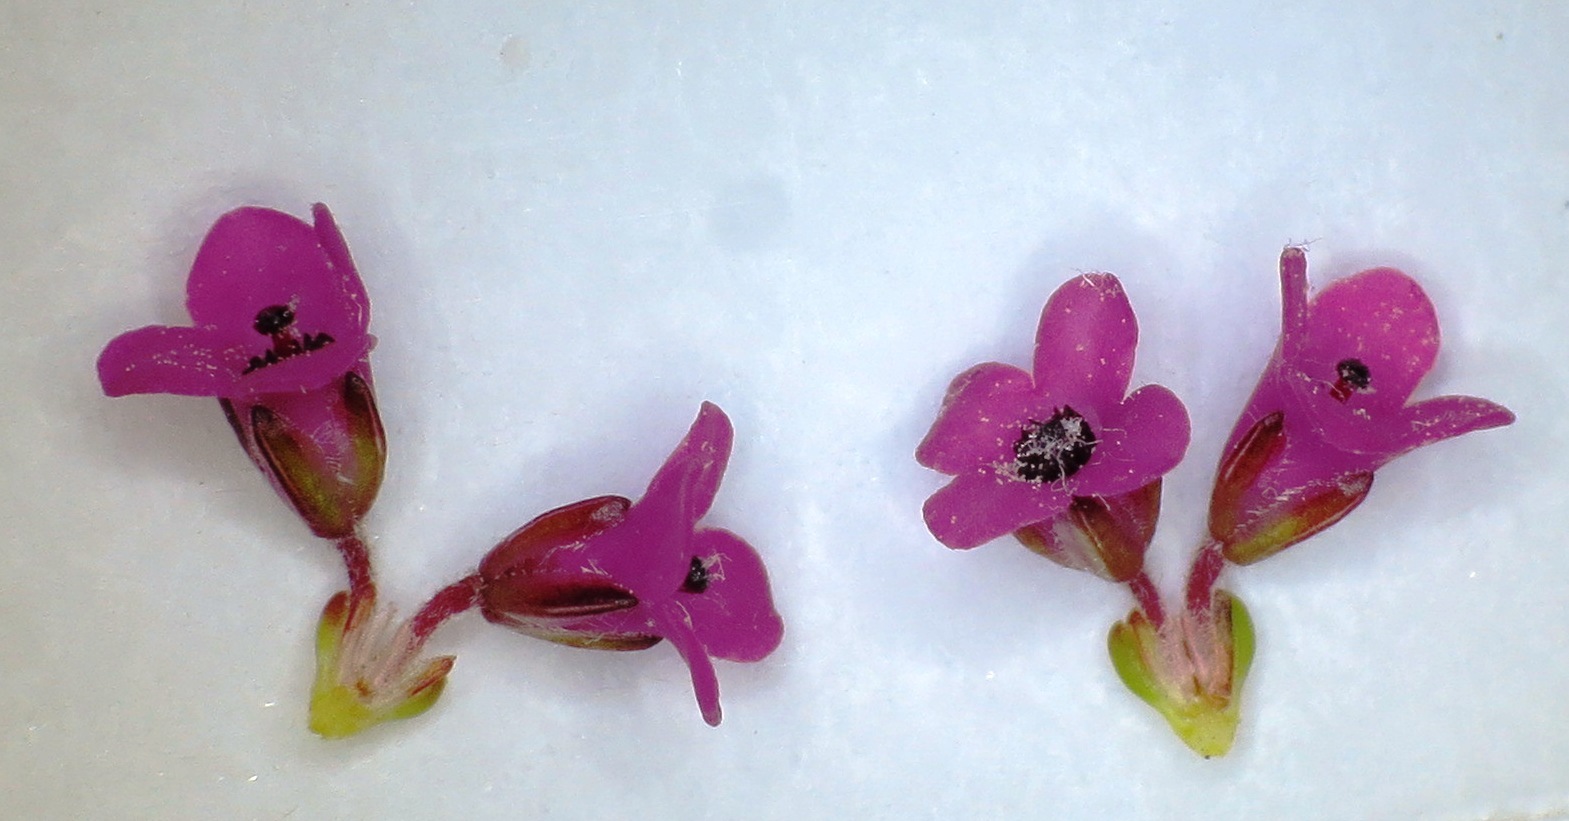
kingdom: Plantae
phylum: Tracheophyta
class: Magnoliopsida
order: Ericales
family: Ericaceae
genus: Erica
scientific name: Erica pulchella
